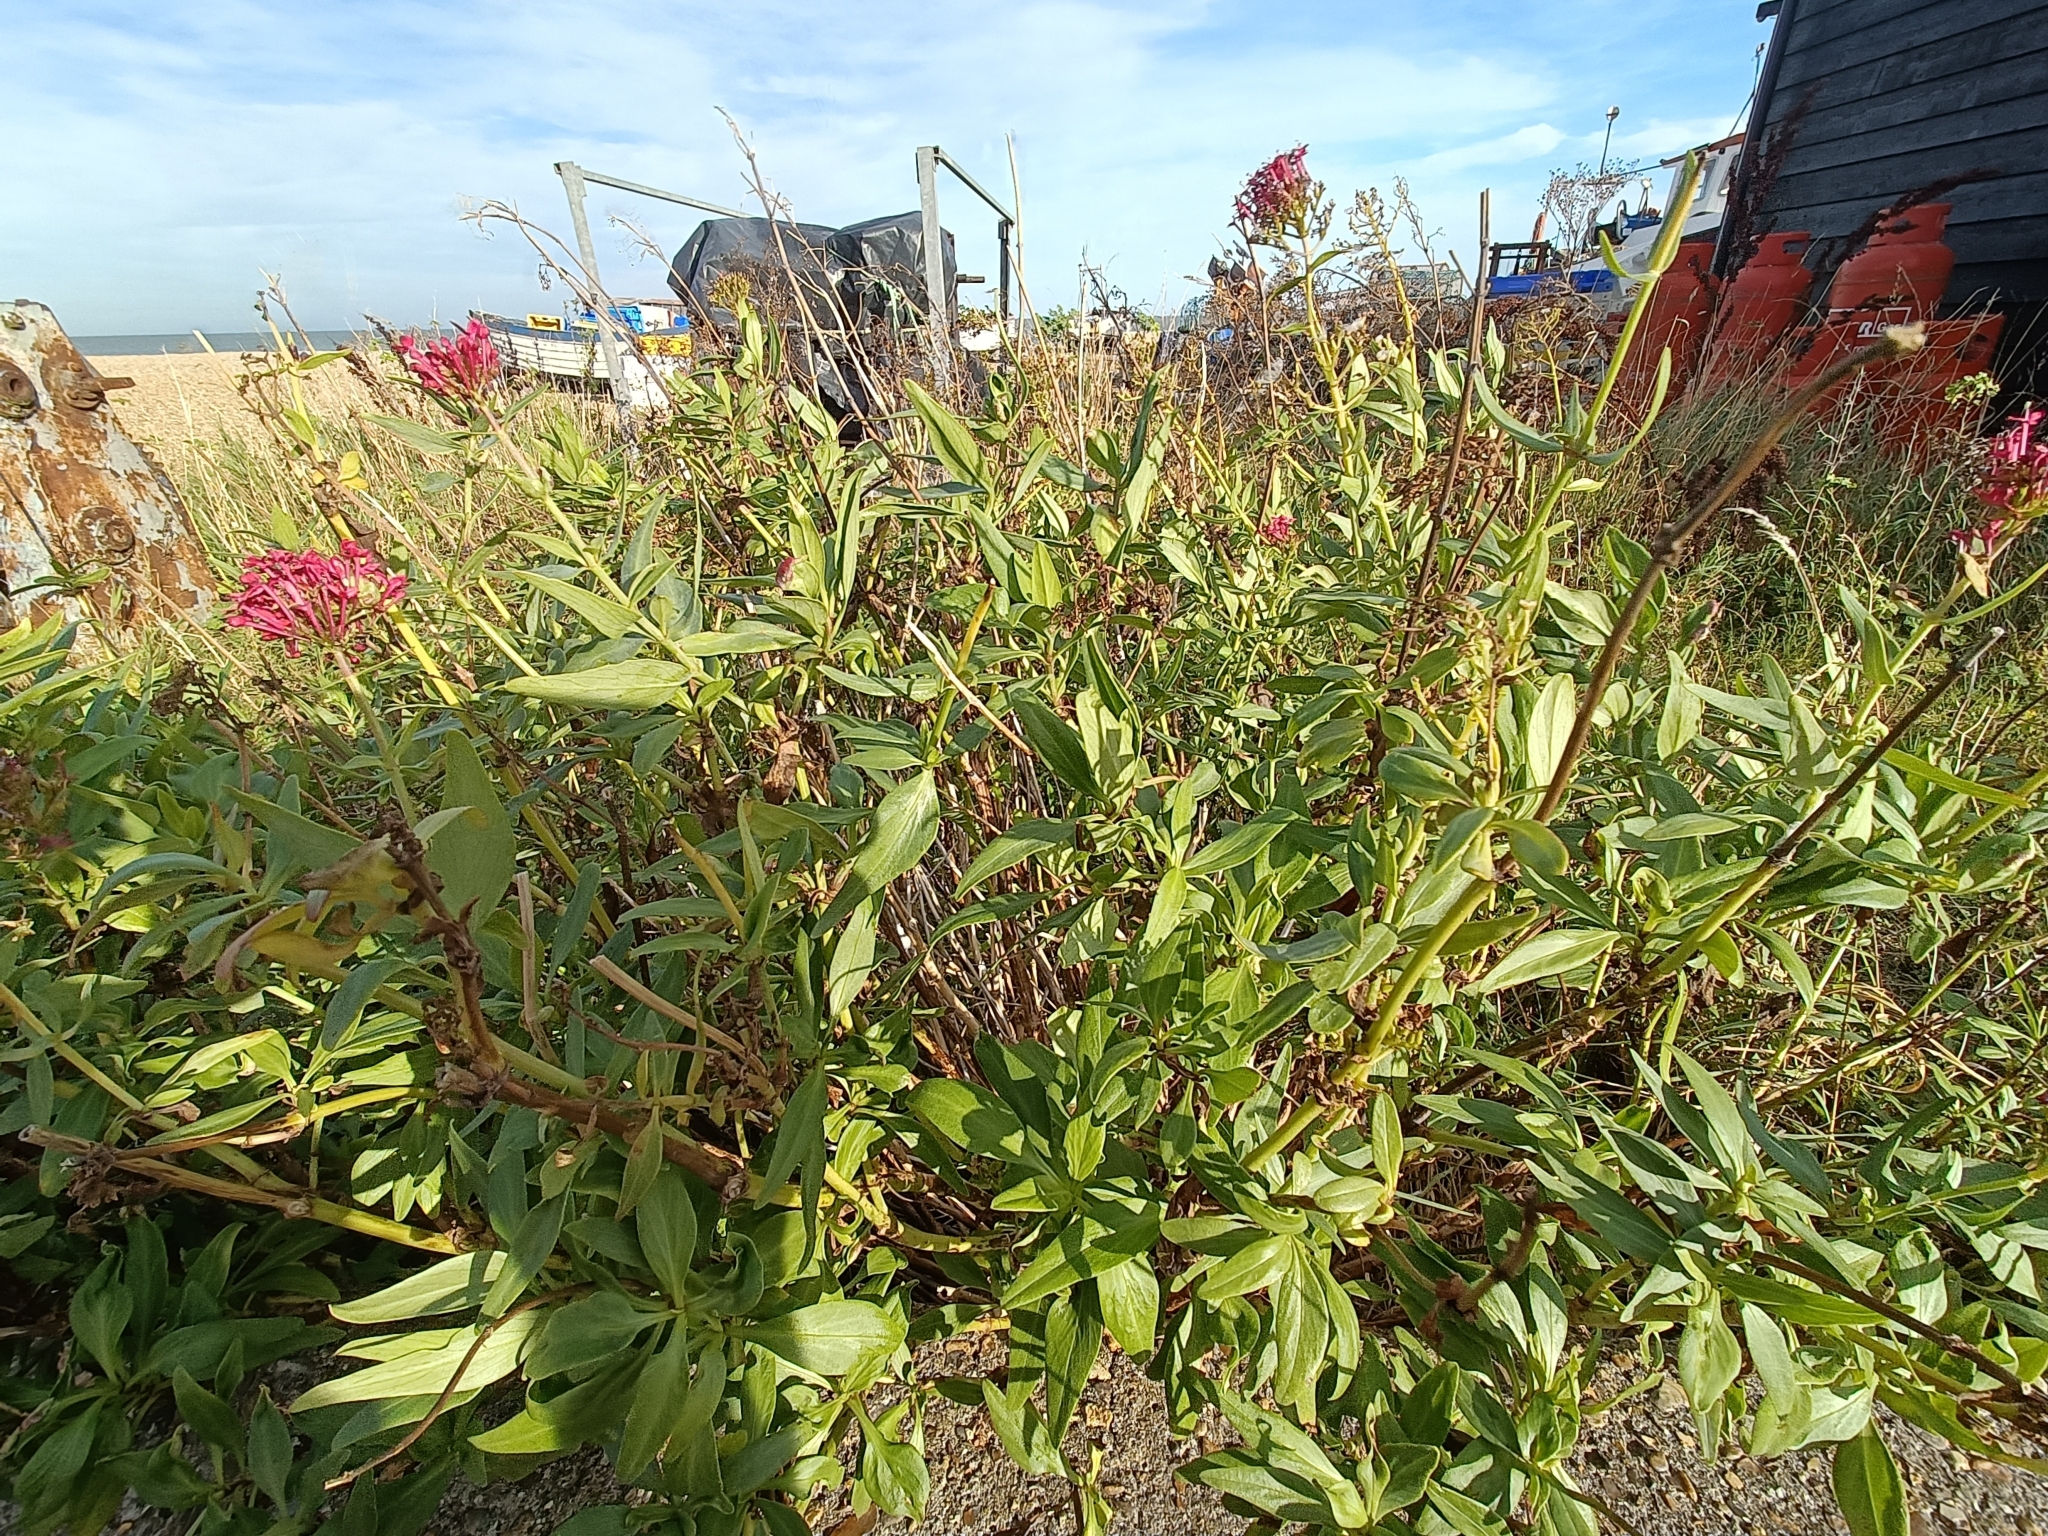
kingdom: Plantae
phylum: Tracheophyta
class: Magnoliopsida
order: Dipsacales
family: Caprifoliaceae
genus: Centranthus
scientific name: Centranthus ruber
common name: Red valerian
